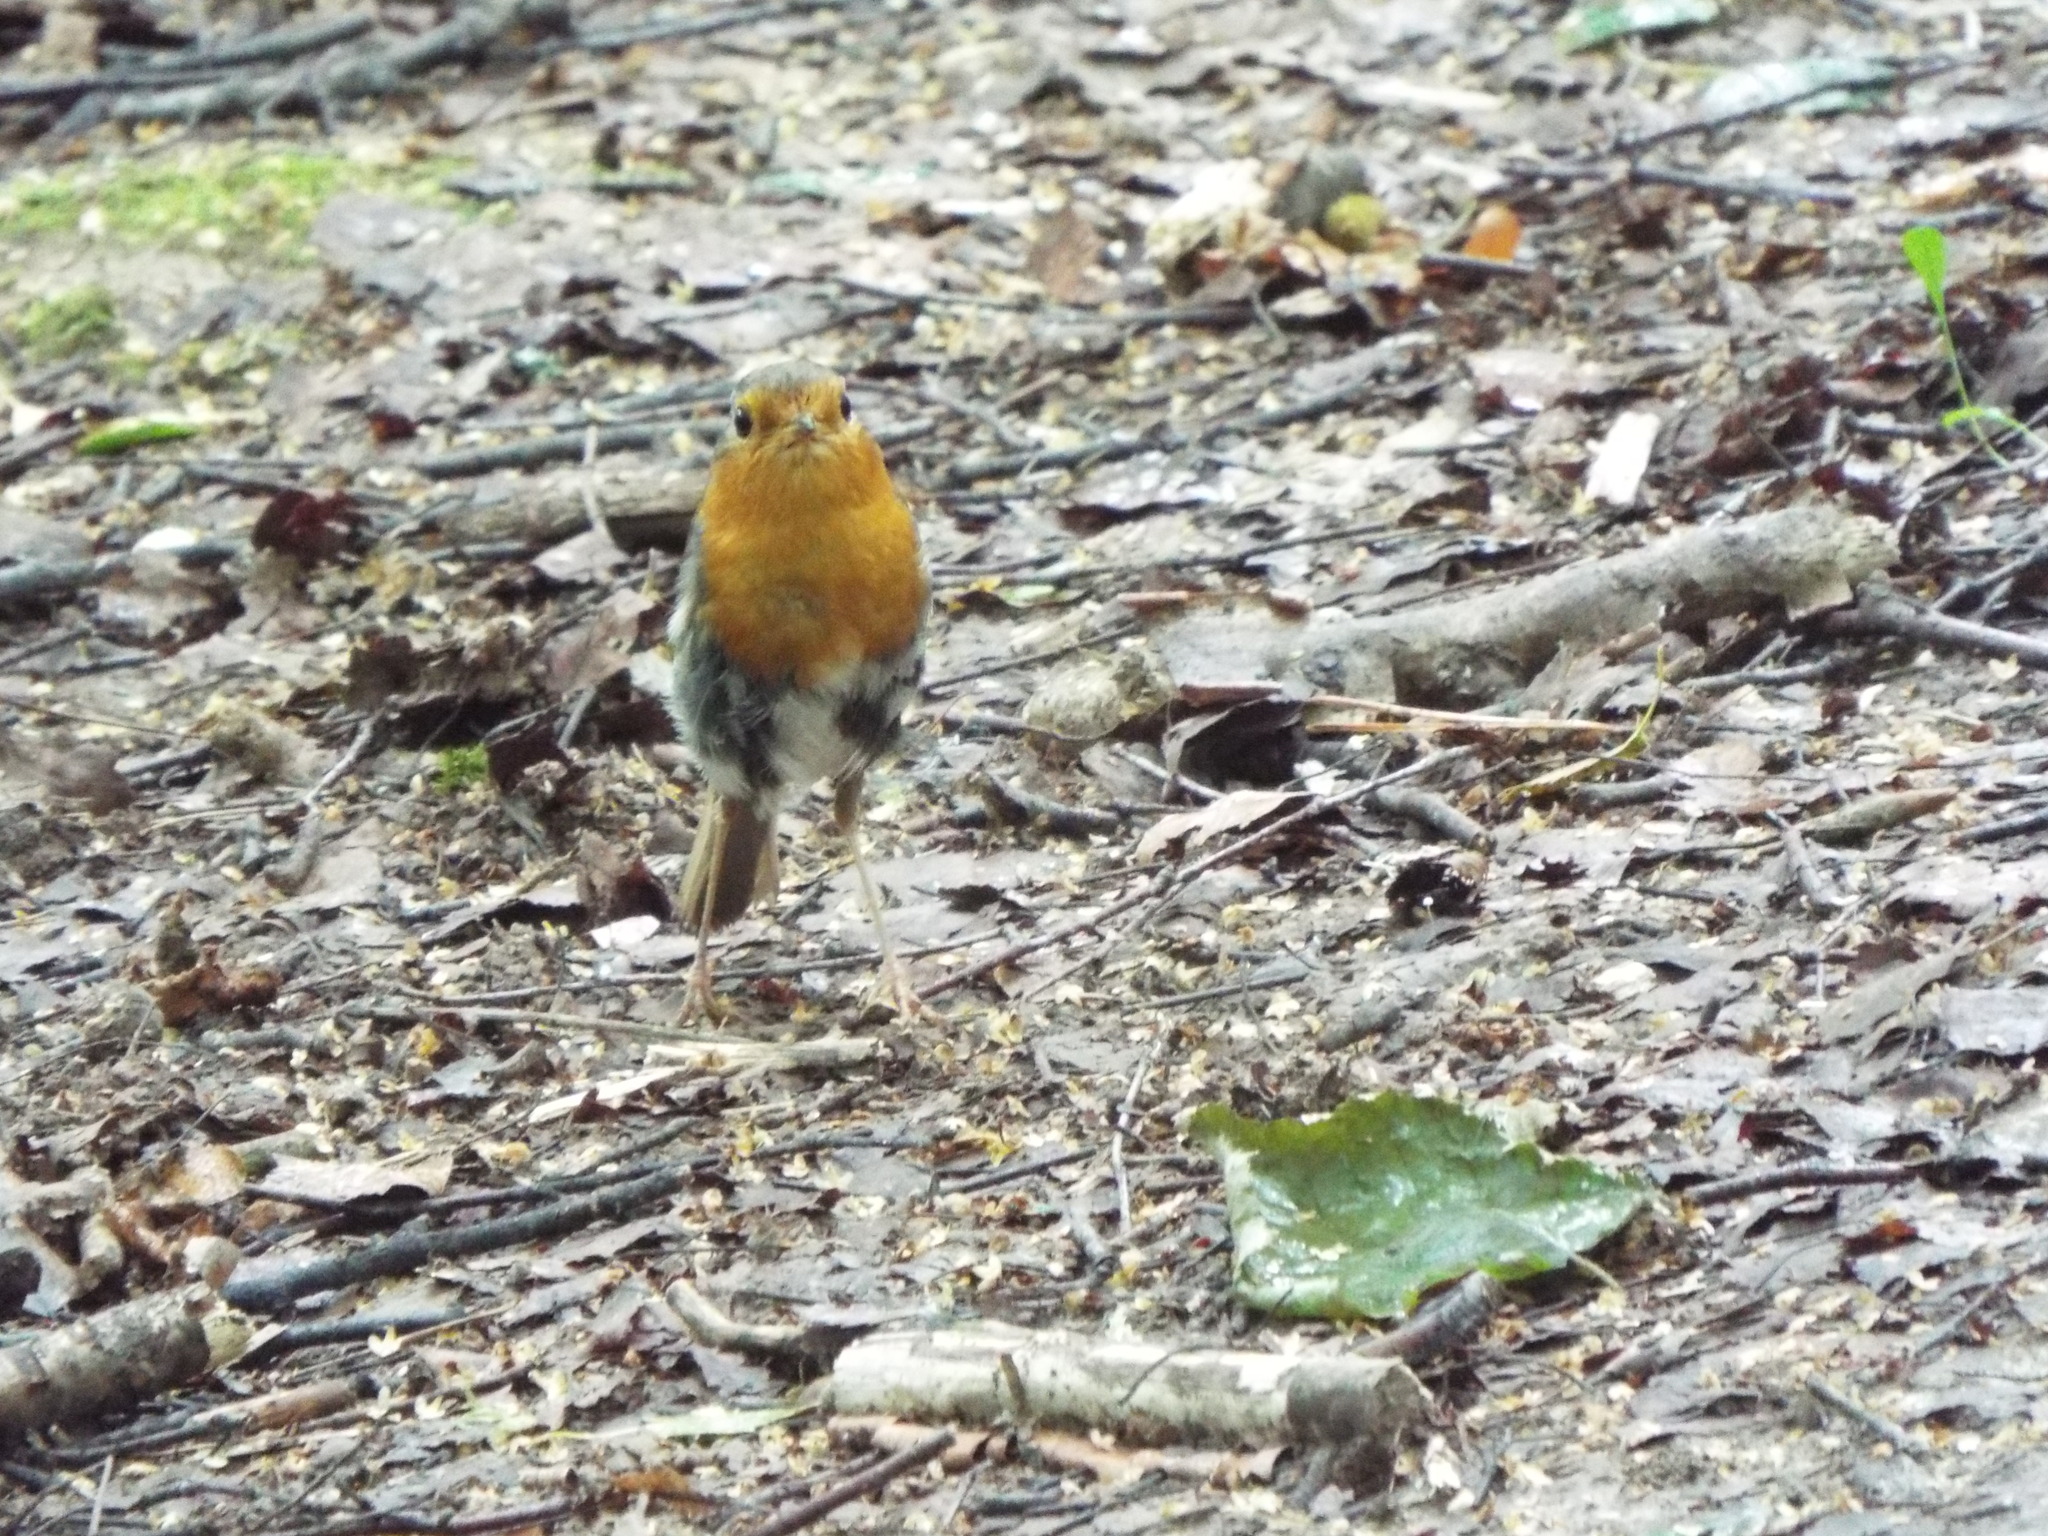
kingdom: Animalia
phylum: Chordata
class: Aves
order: Passeriformes
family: Muscicapidae
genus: Erithacus
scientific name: Erithacus rubecula
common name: European robin
